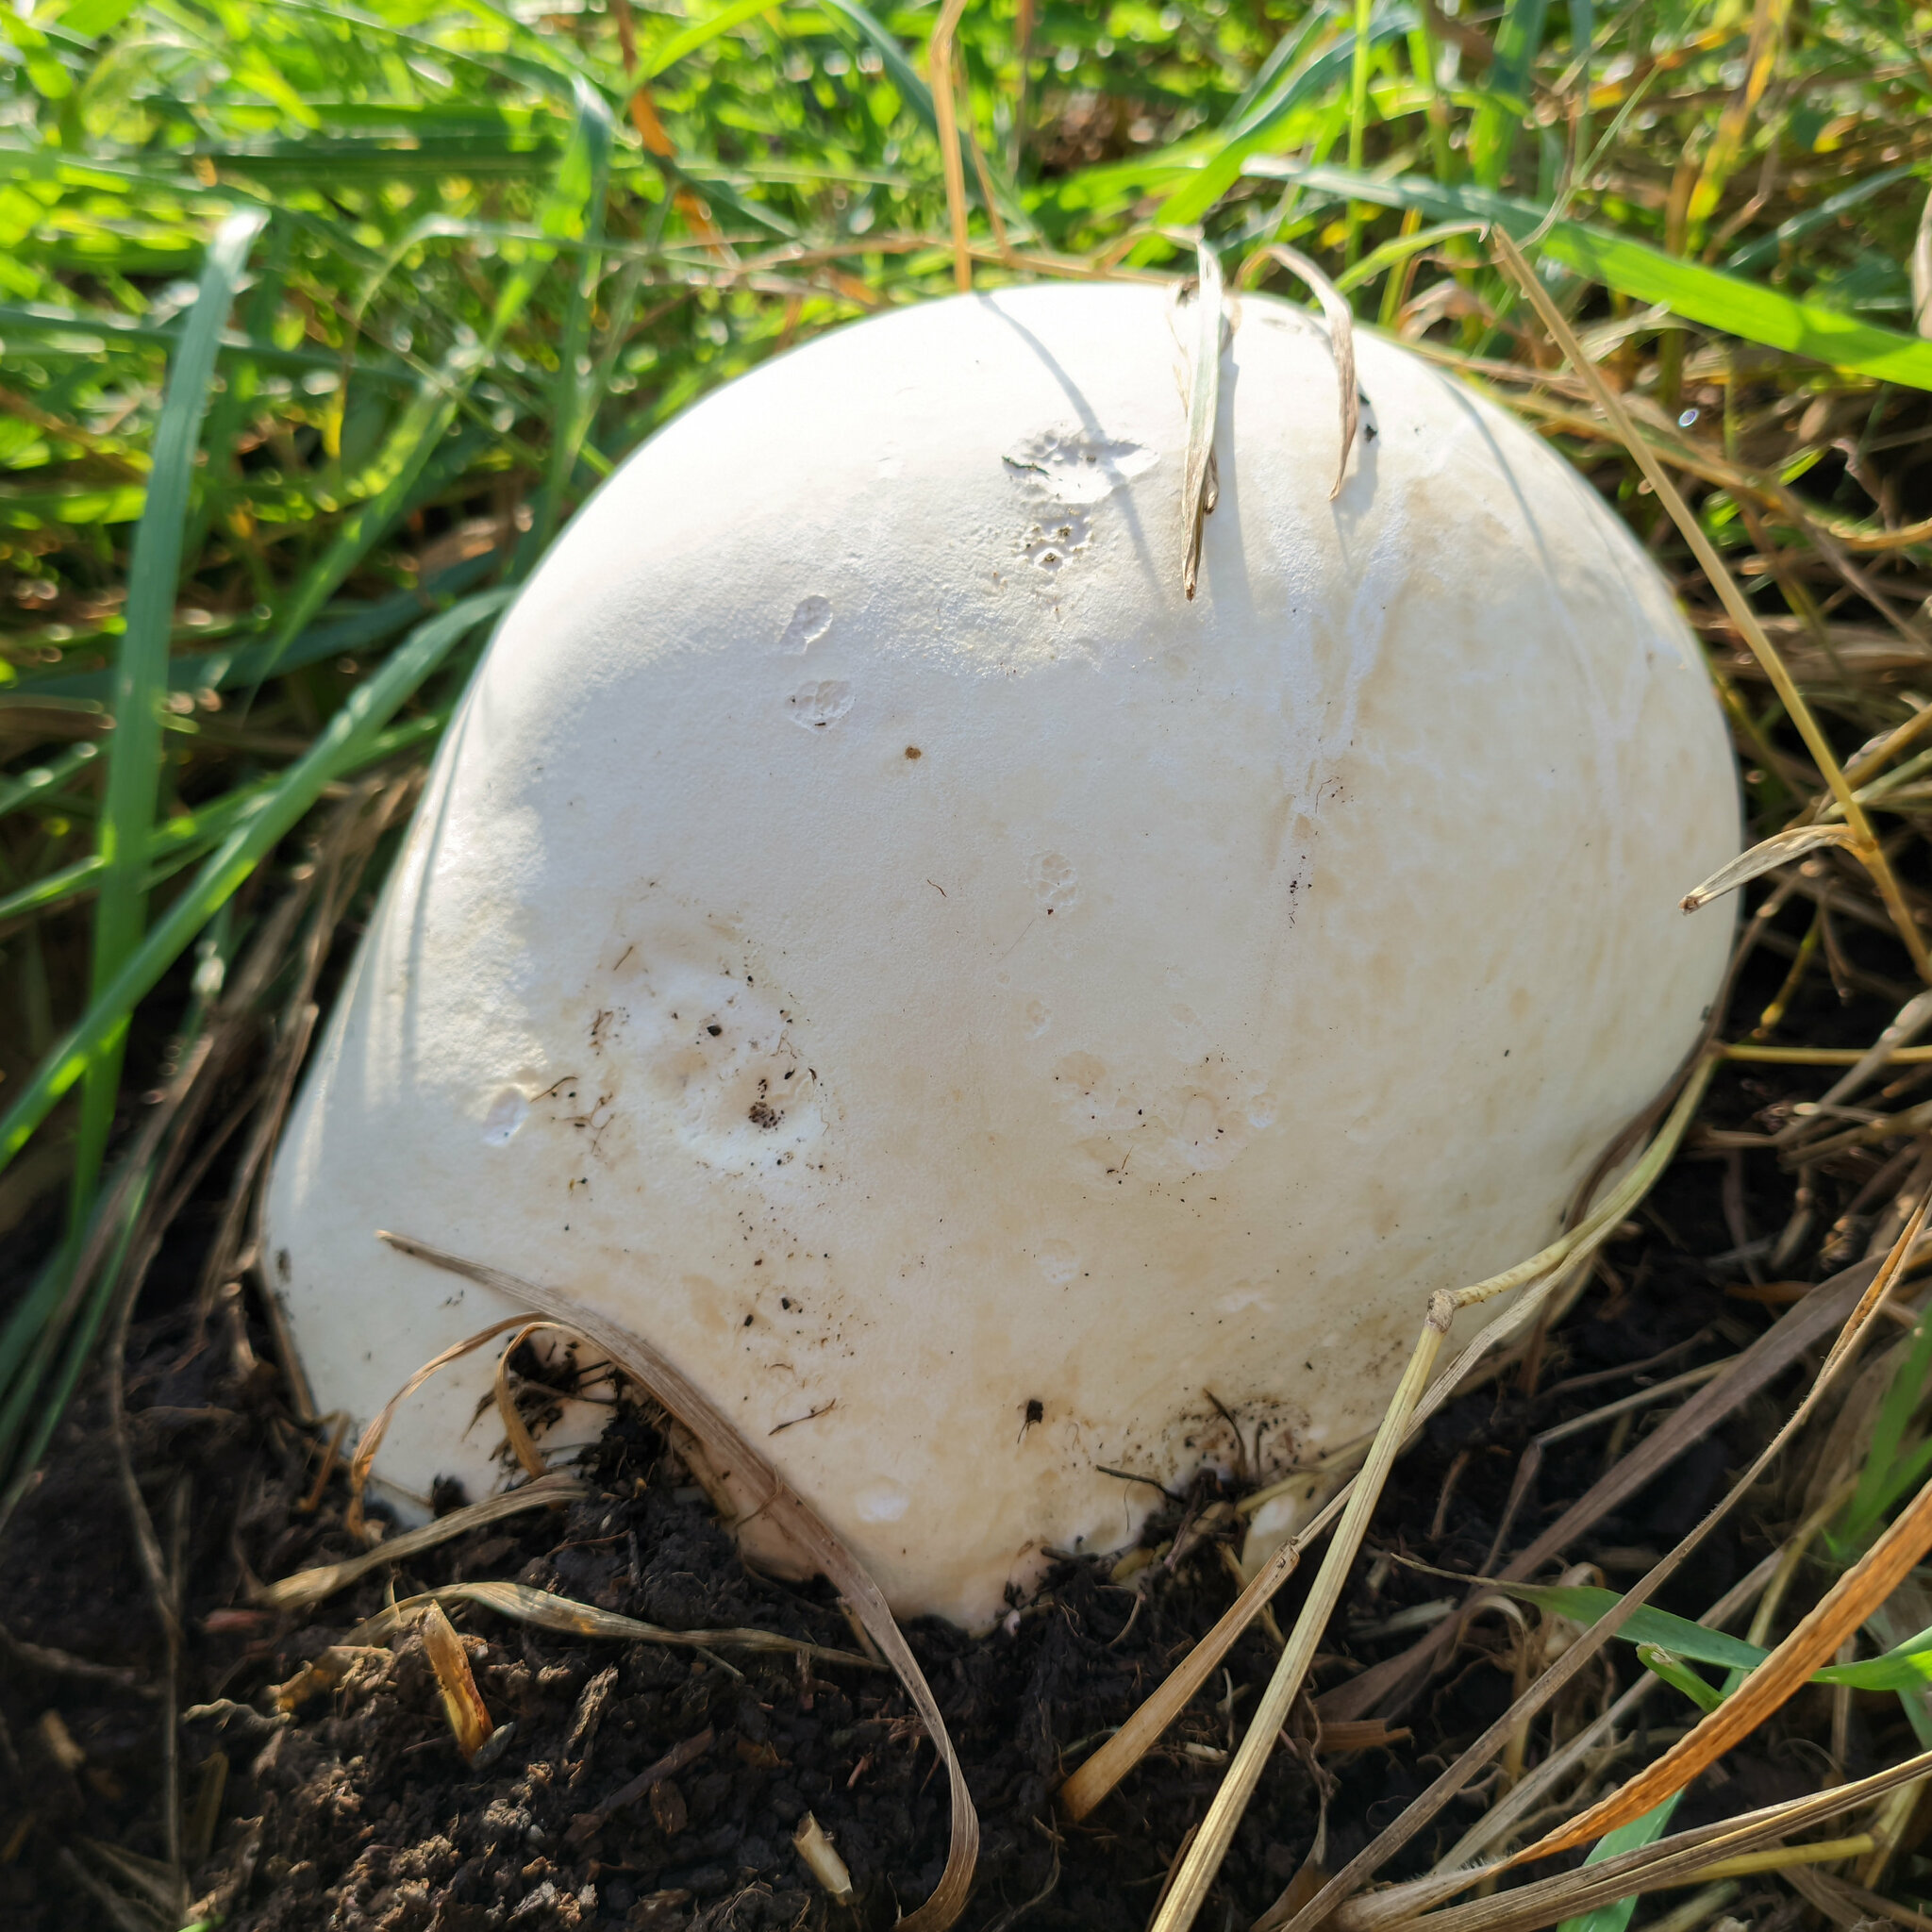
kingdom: Fungi
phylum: Basidiomycota
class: Agaricomycetes
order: Agaricales
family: Lycoperdaceae
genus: Calvatia
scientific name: Calvatia gigantea
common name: Giant puffball
